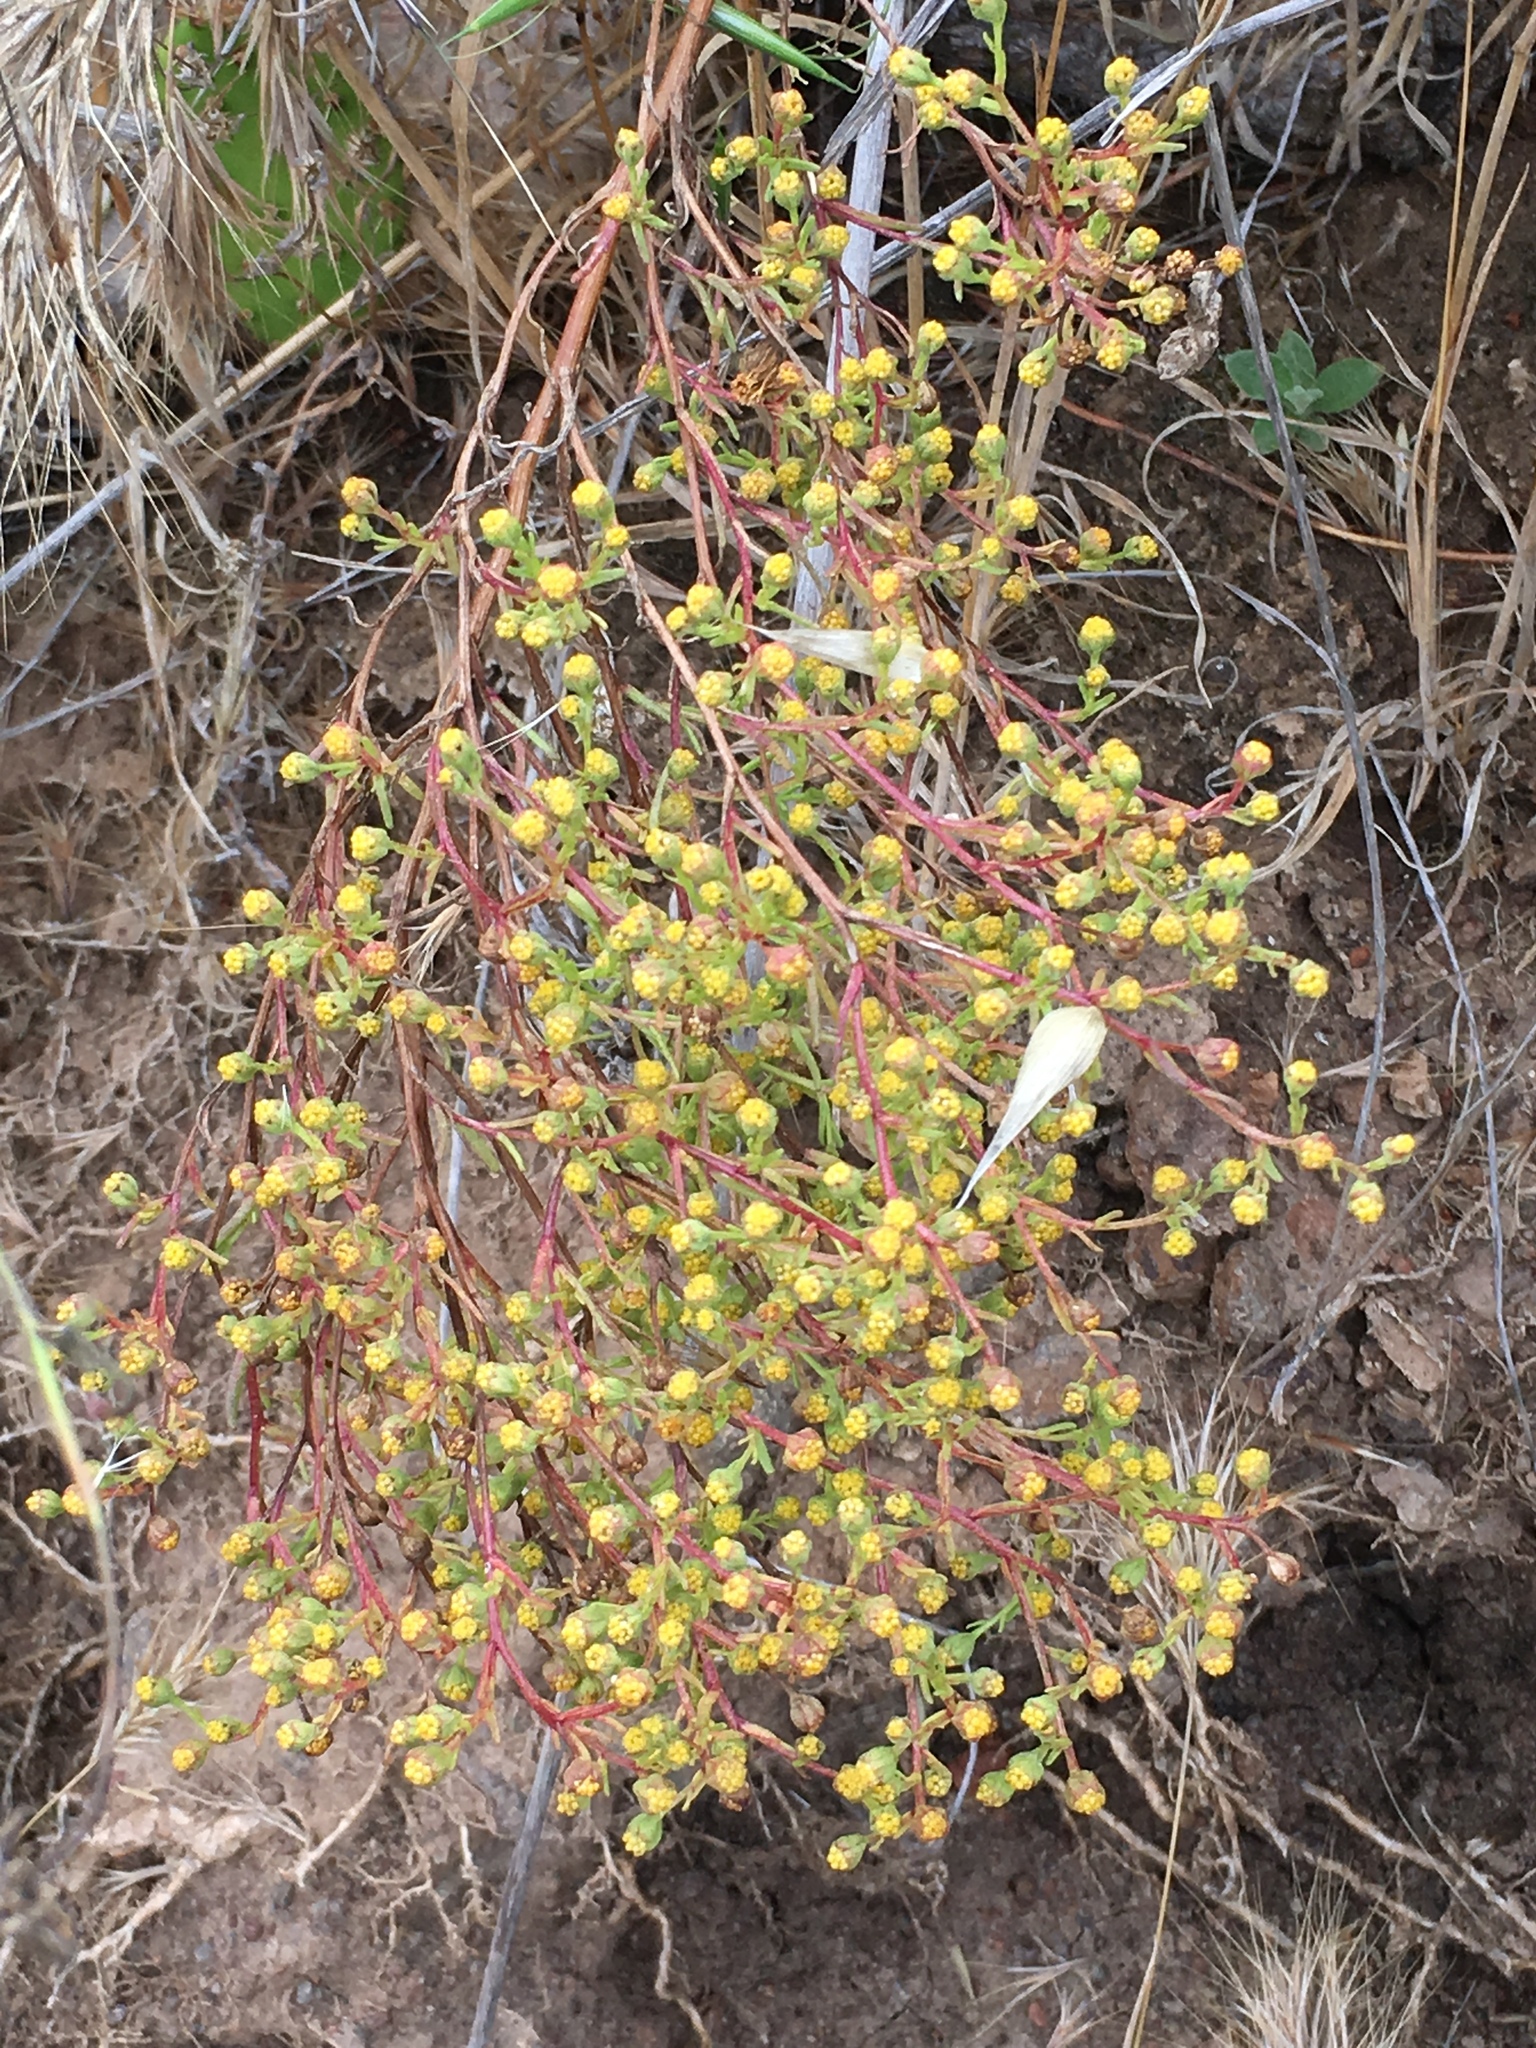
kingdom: Plantae
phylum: Tracheophyta
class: Magnoliopsida
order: Asterales
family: Asteraceae
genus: Amblyopappus
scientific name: Amblyopappus pusillus
